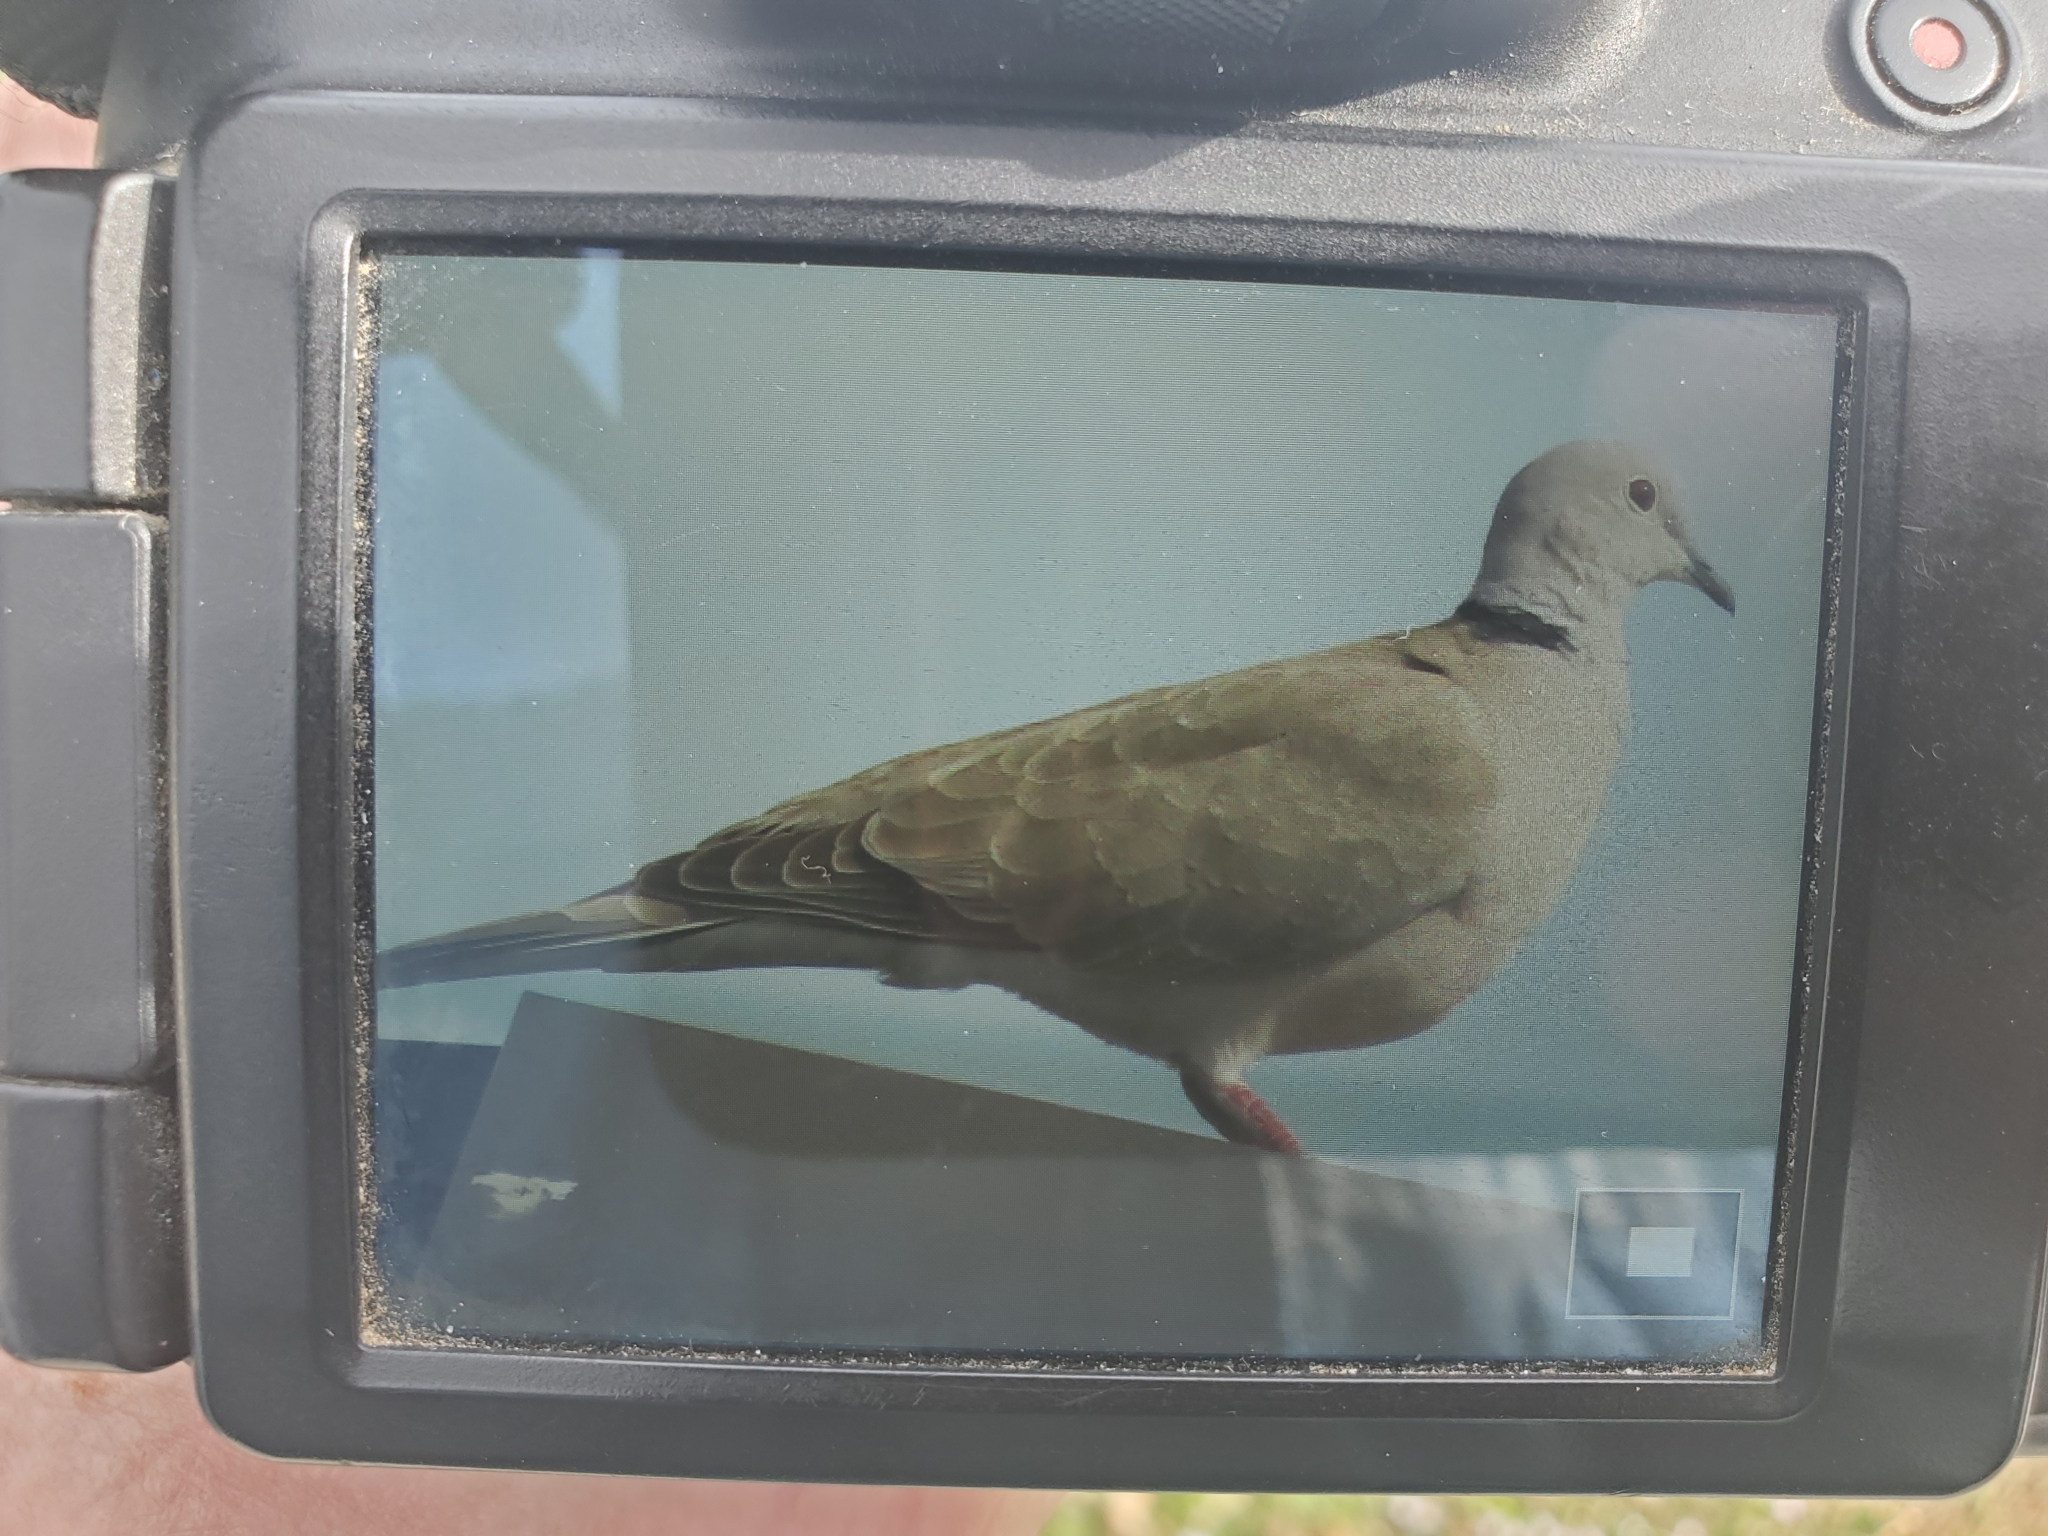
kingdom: Animalia
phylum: Chordata
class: Aves
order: Columbiformes
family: Columbidae
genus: Streptopelia
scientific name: Streptopelia decaocto
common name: Eurasian collared dove
